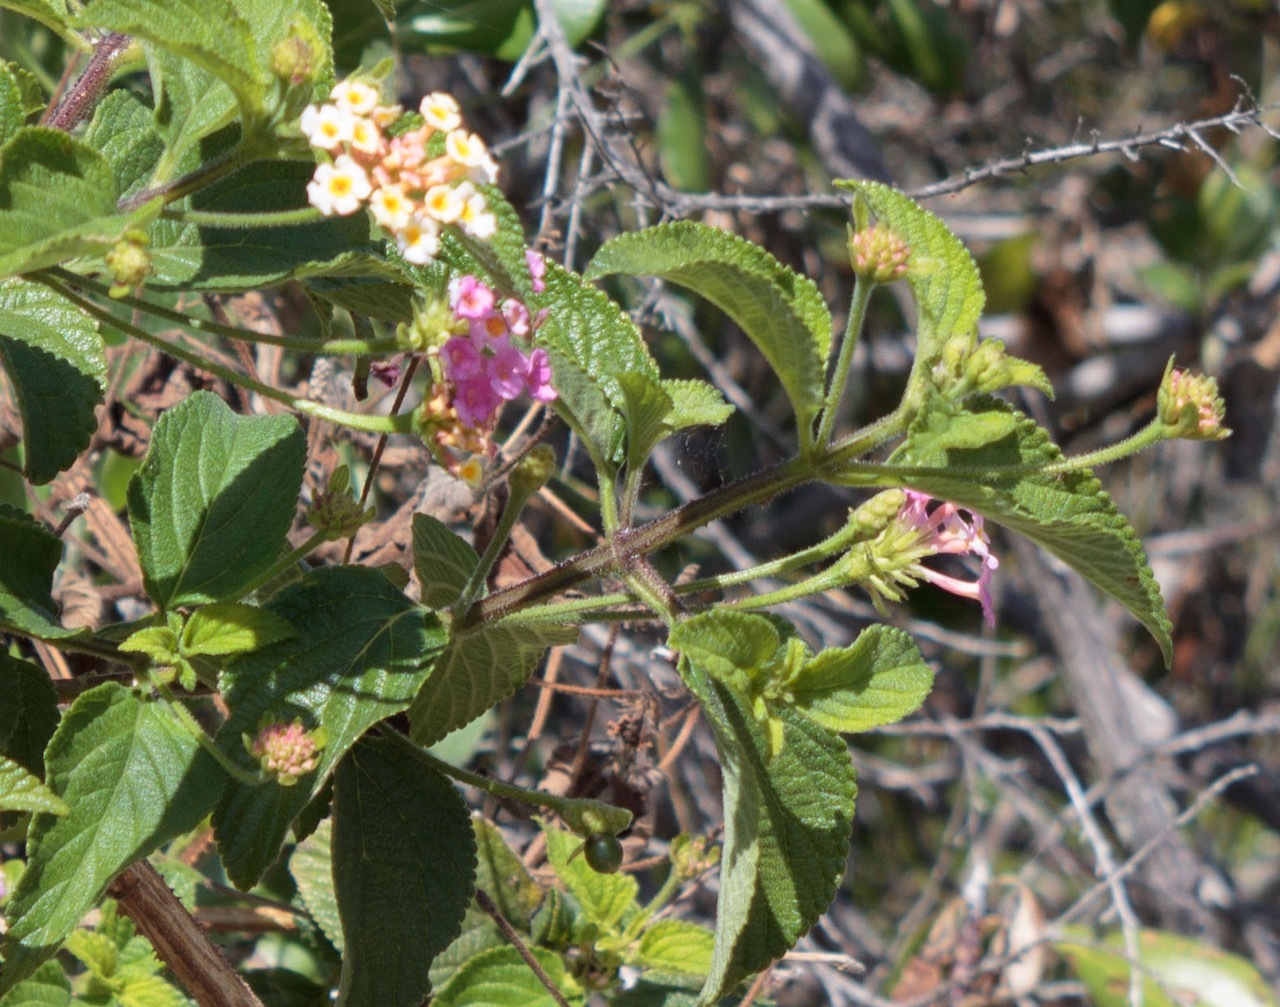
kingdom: Plantae
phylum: Tracheophyta
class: Magnoliopsida
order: Lamiales
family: Verbenaceae
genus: Lantana
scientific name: Lantana camara
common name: Lantana
